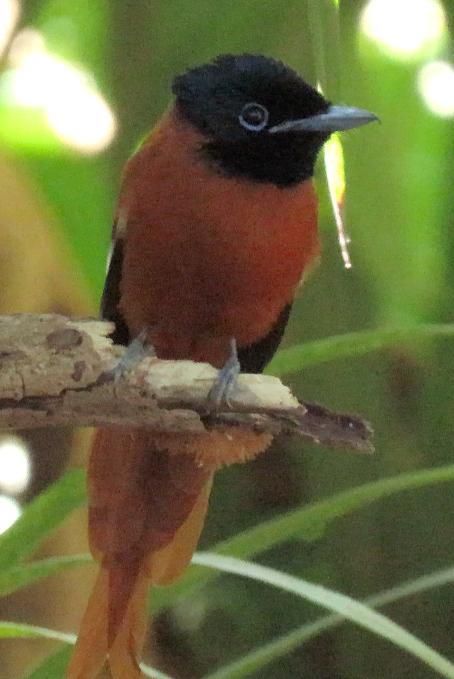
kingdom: Animalia
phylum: Chordata
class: Aves
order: Passeriformes
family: Monarchidae
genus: Terpsiphone
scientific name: Terpsiphone rufiventer
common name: Red-bellied paradise flycatcher
